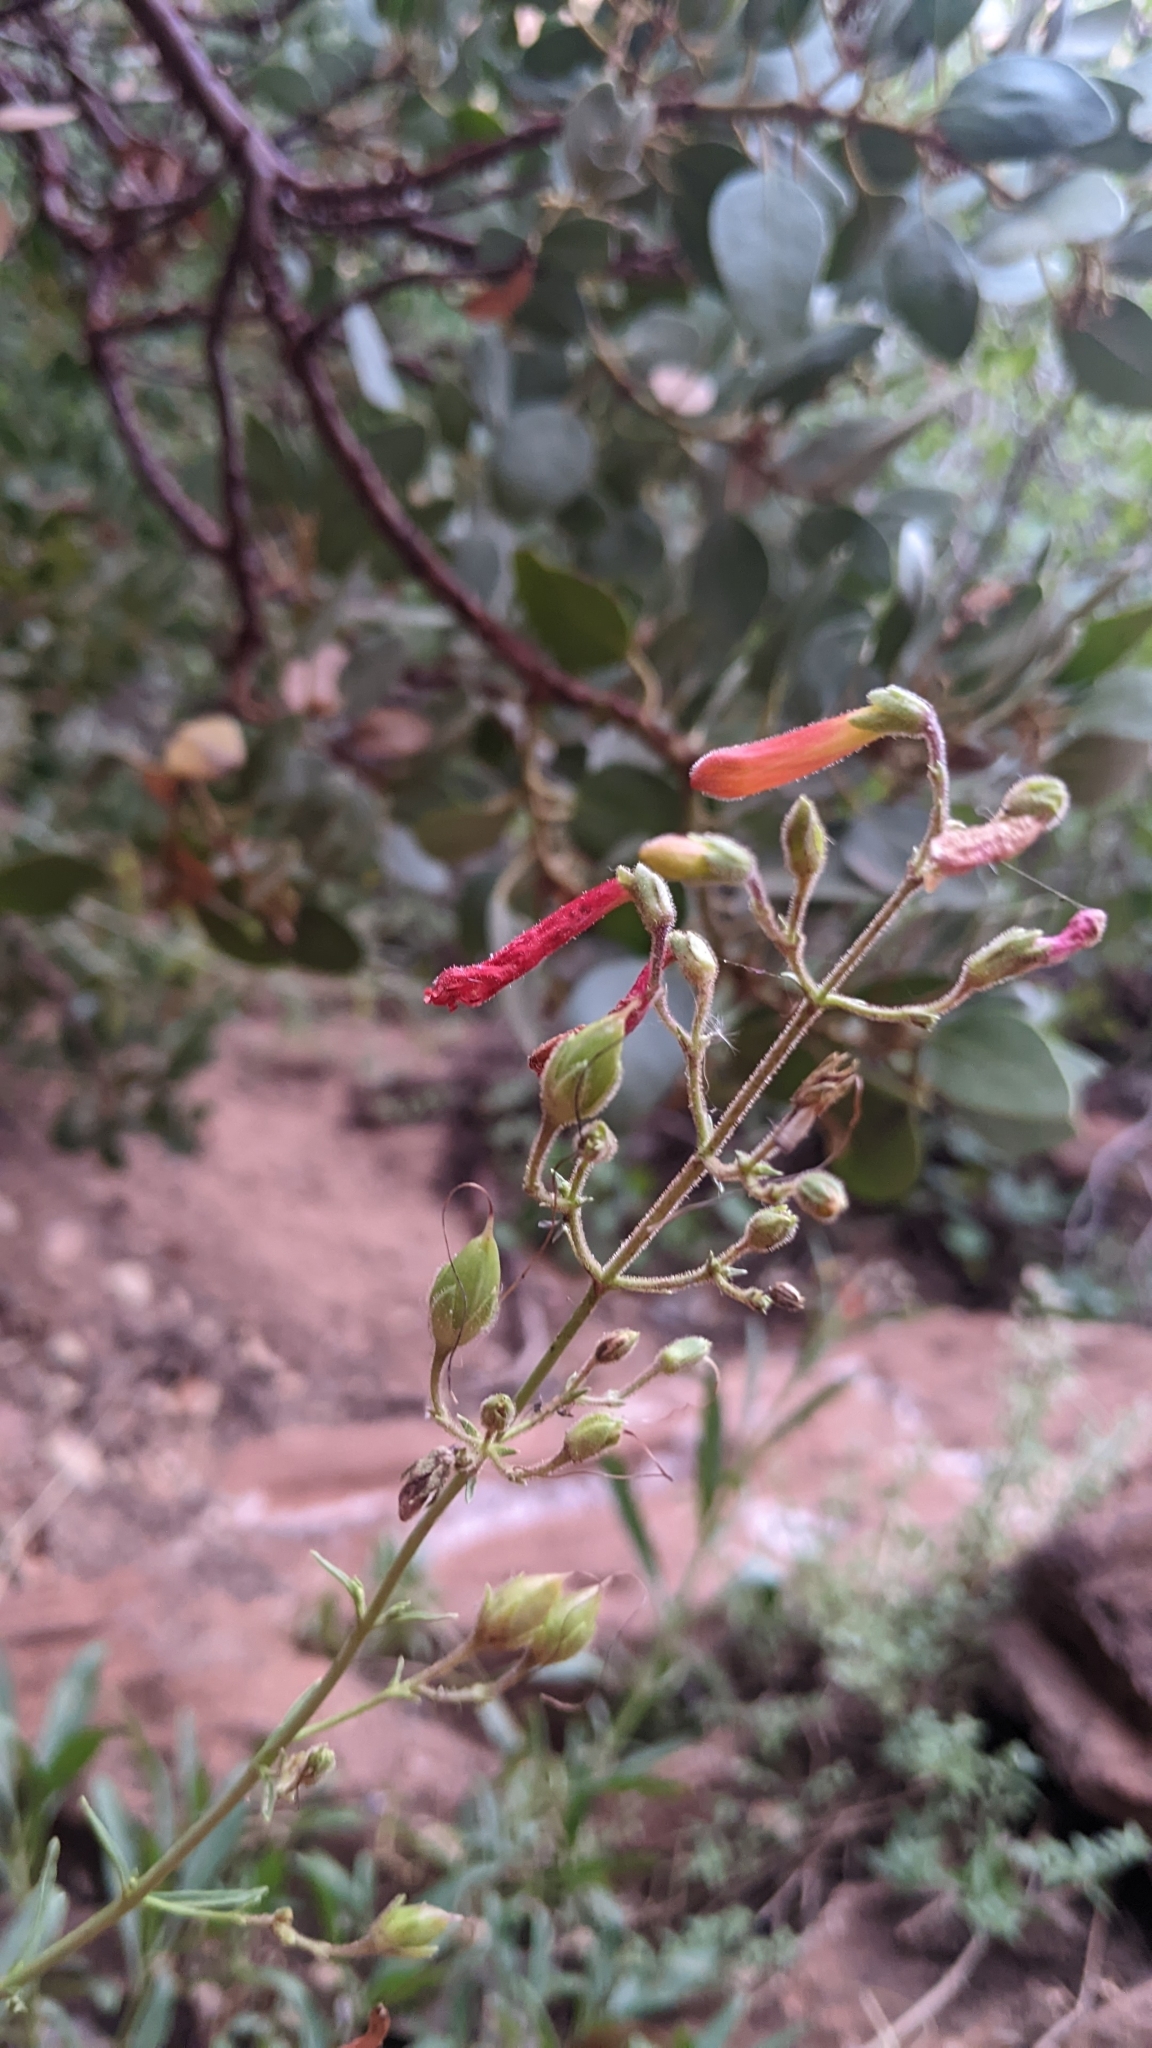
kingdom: Plantae
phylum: Tracheophyta
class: Magnoliopsida
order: Lamiales
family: Plantaginaceae
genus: Penstemon
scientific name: Penstemon rostriflorus
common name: Bridges's penstemon
